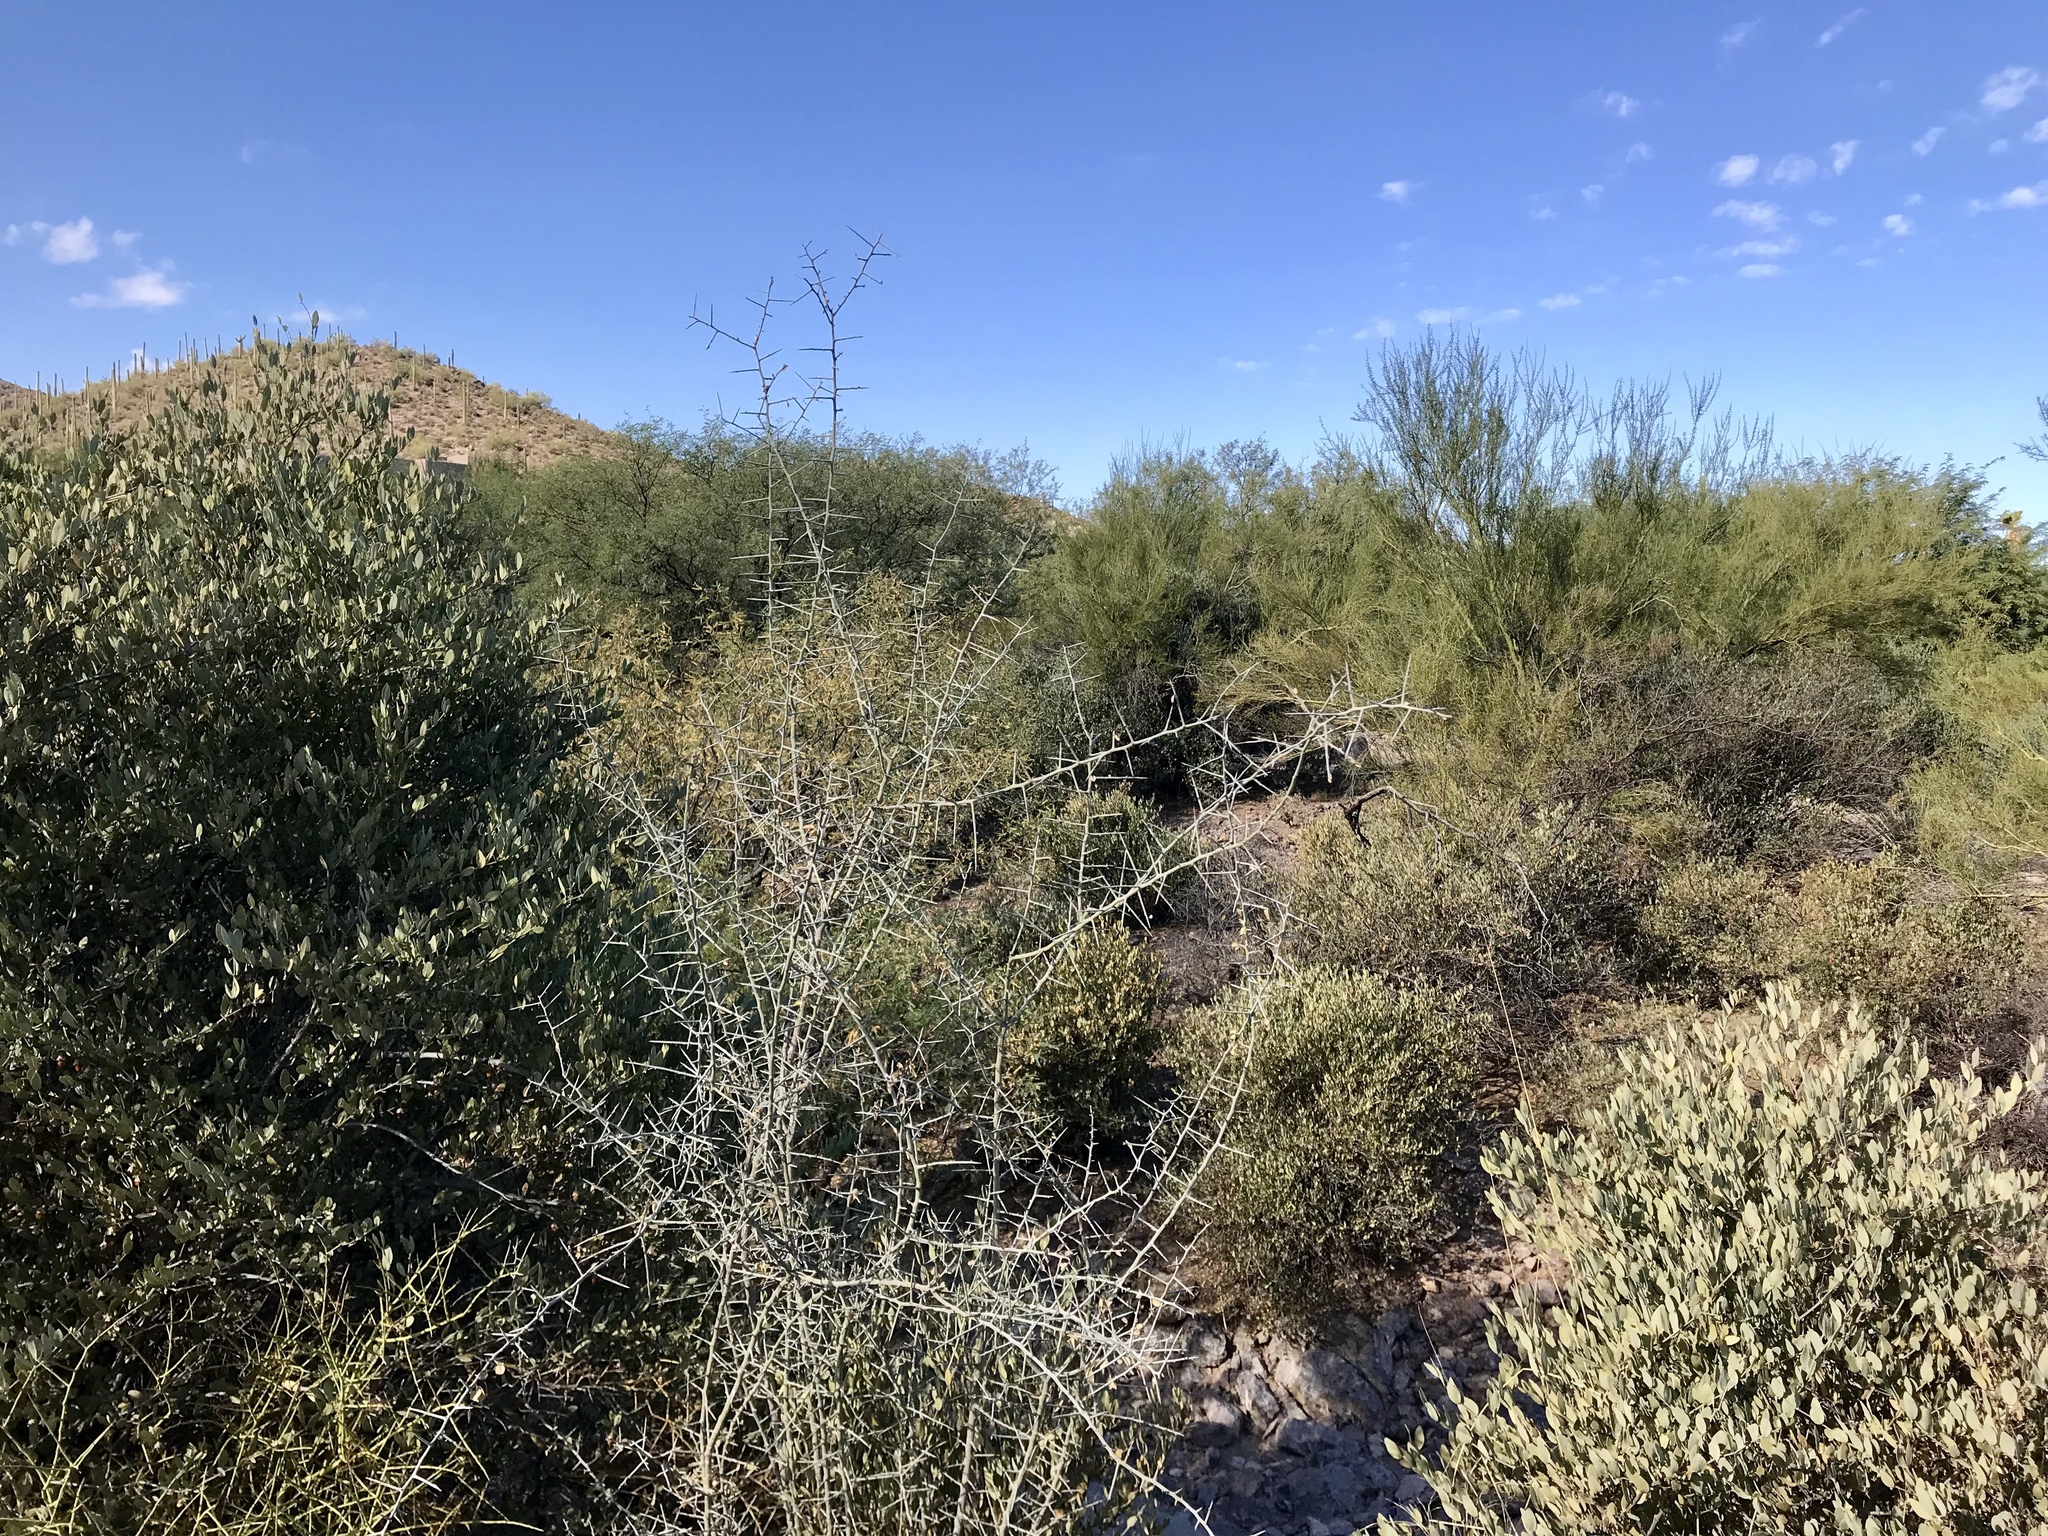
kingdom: Plantae
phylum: Tracheophyta
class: Magnoliopsida
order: Rosales
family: Rhamnaceae
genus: Sarcomphalus
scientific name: Sarcomphalus obtusifolius
